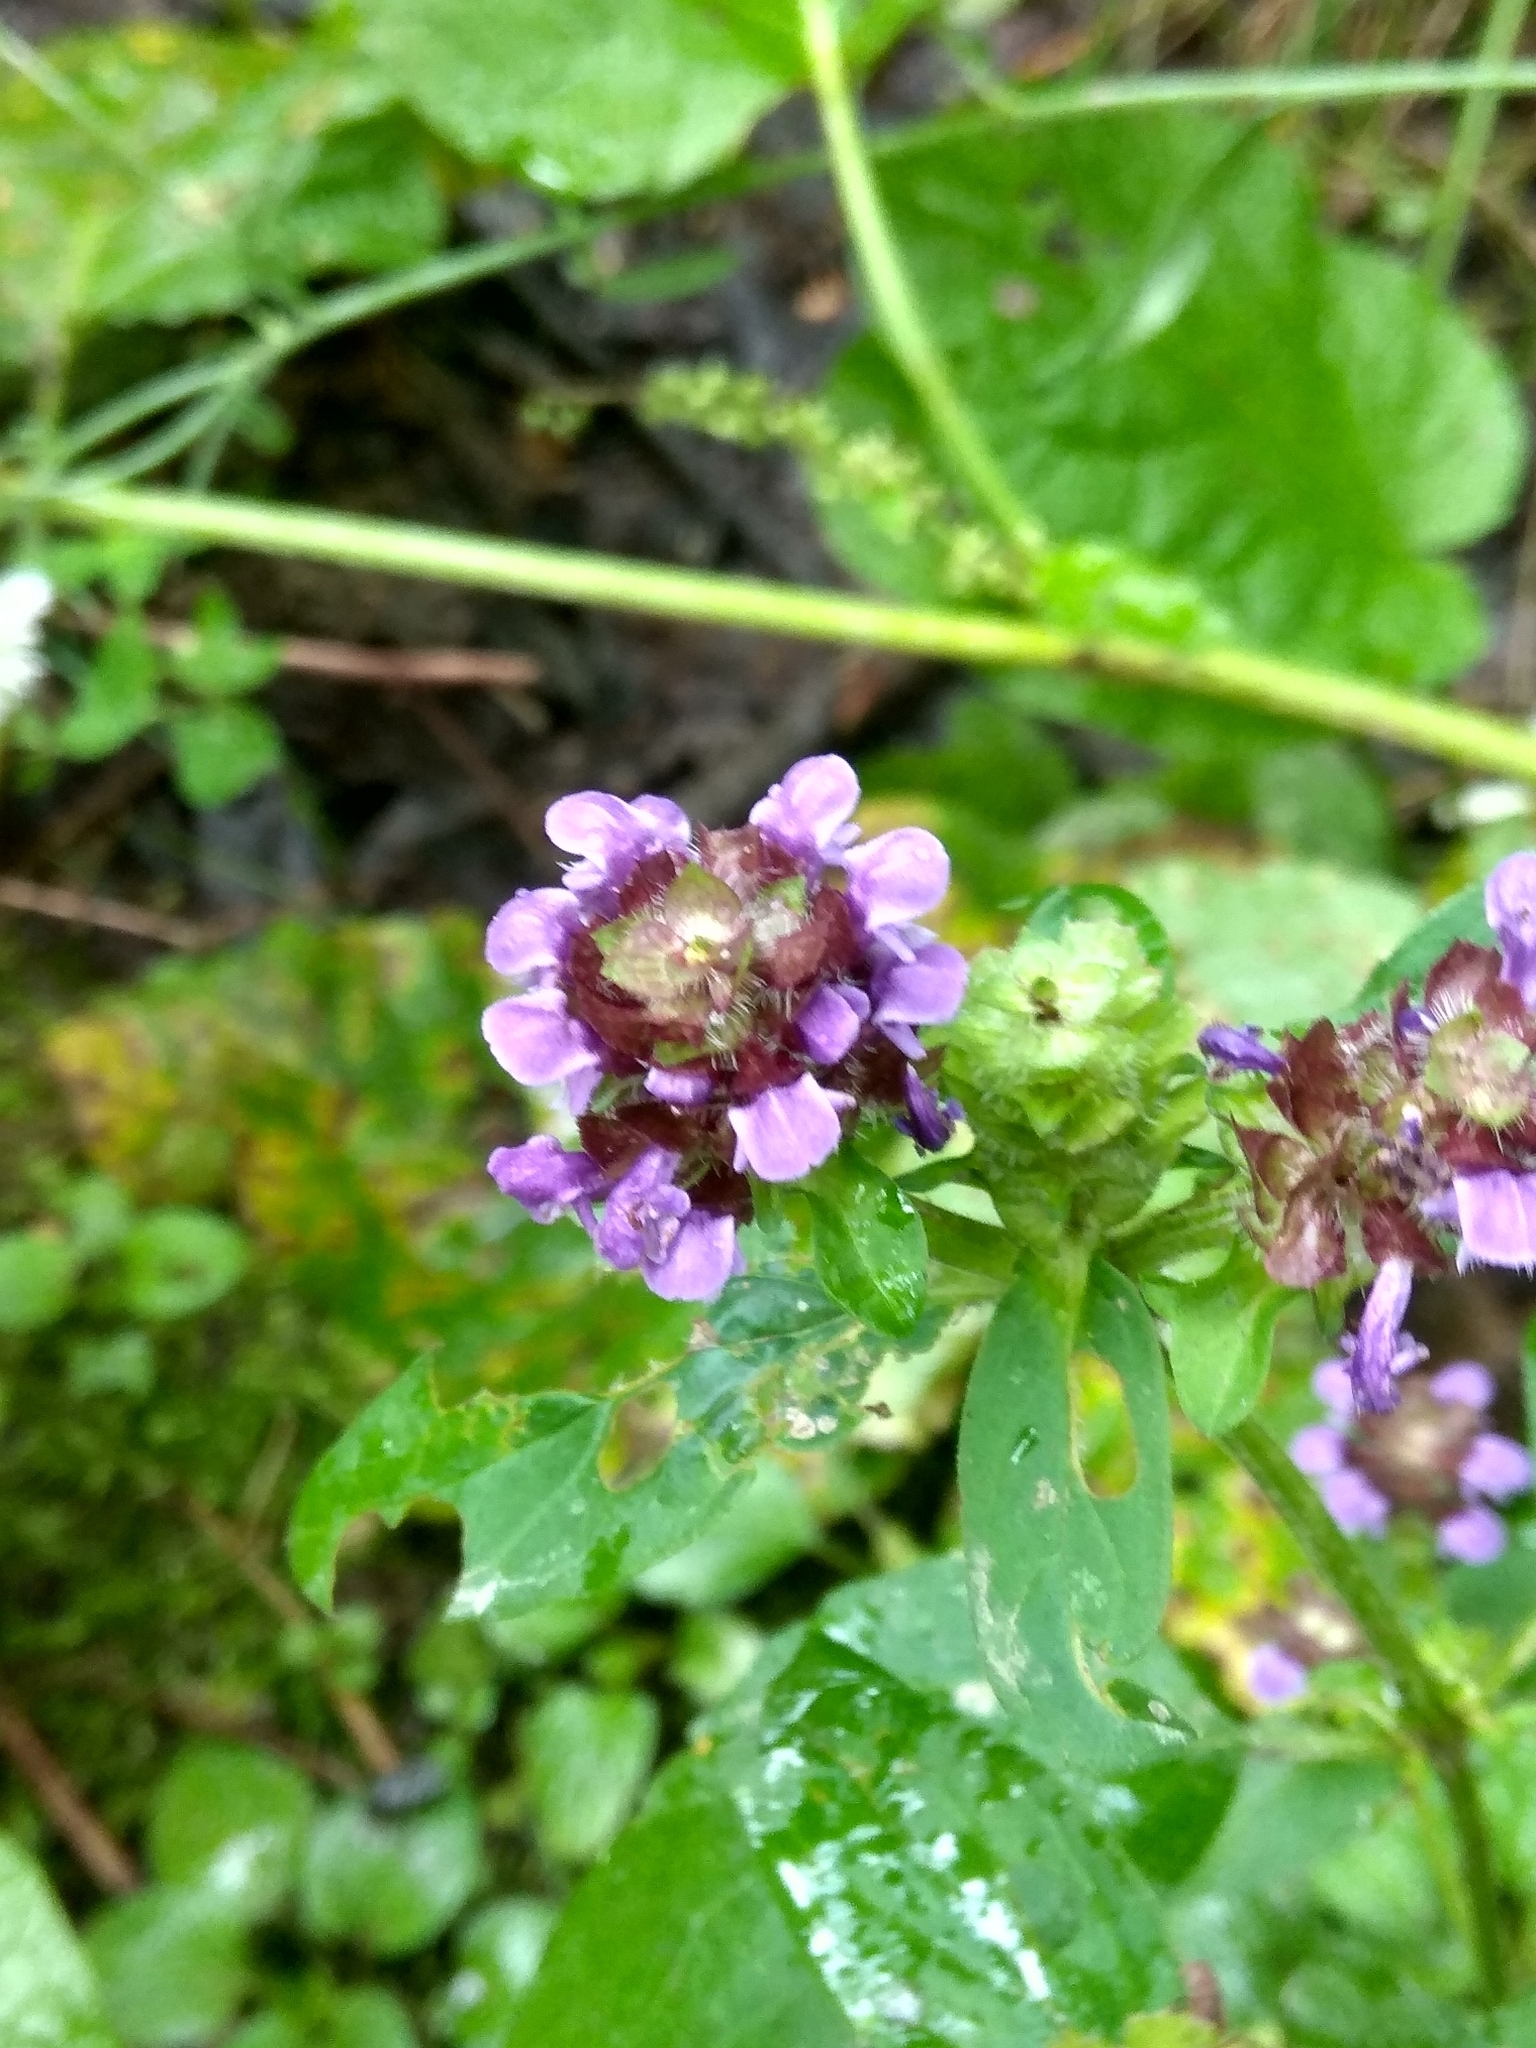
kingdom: Plantae
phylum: Tracheophyta
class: Magnoliopsida
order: Lamiales
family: Lamiaceae
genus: Prunella
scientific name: Prunella vulgaris
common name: Heal-all
